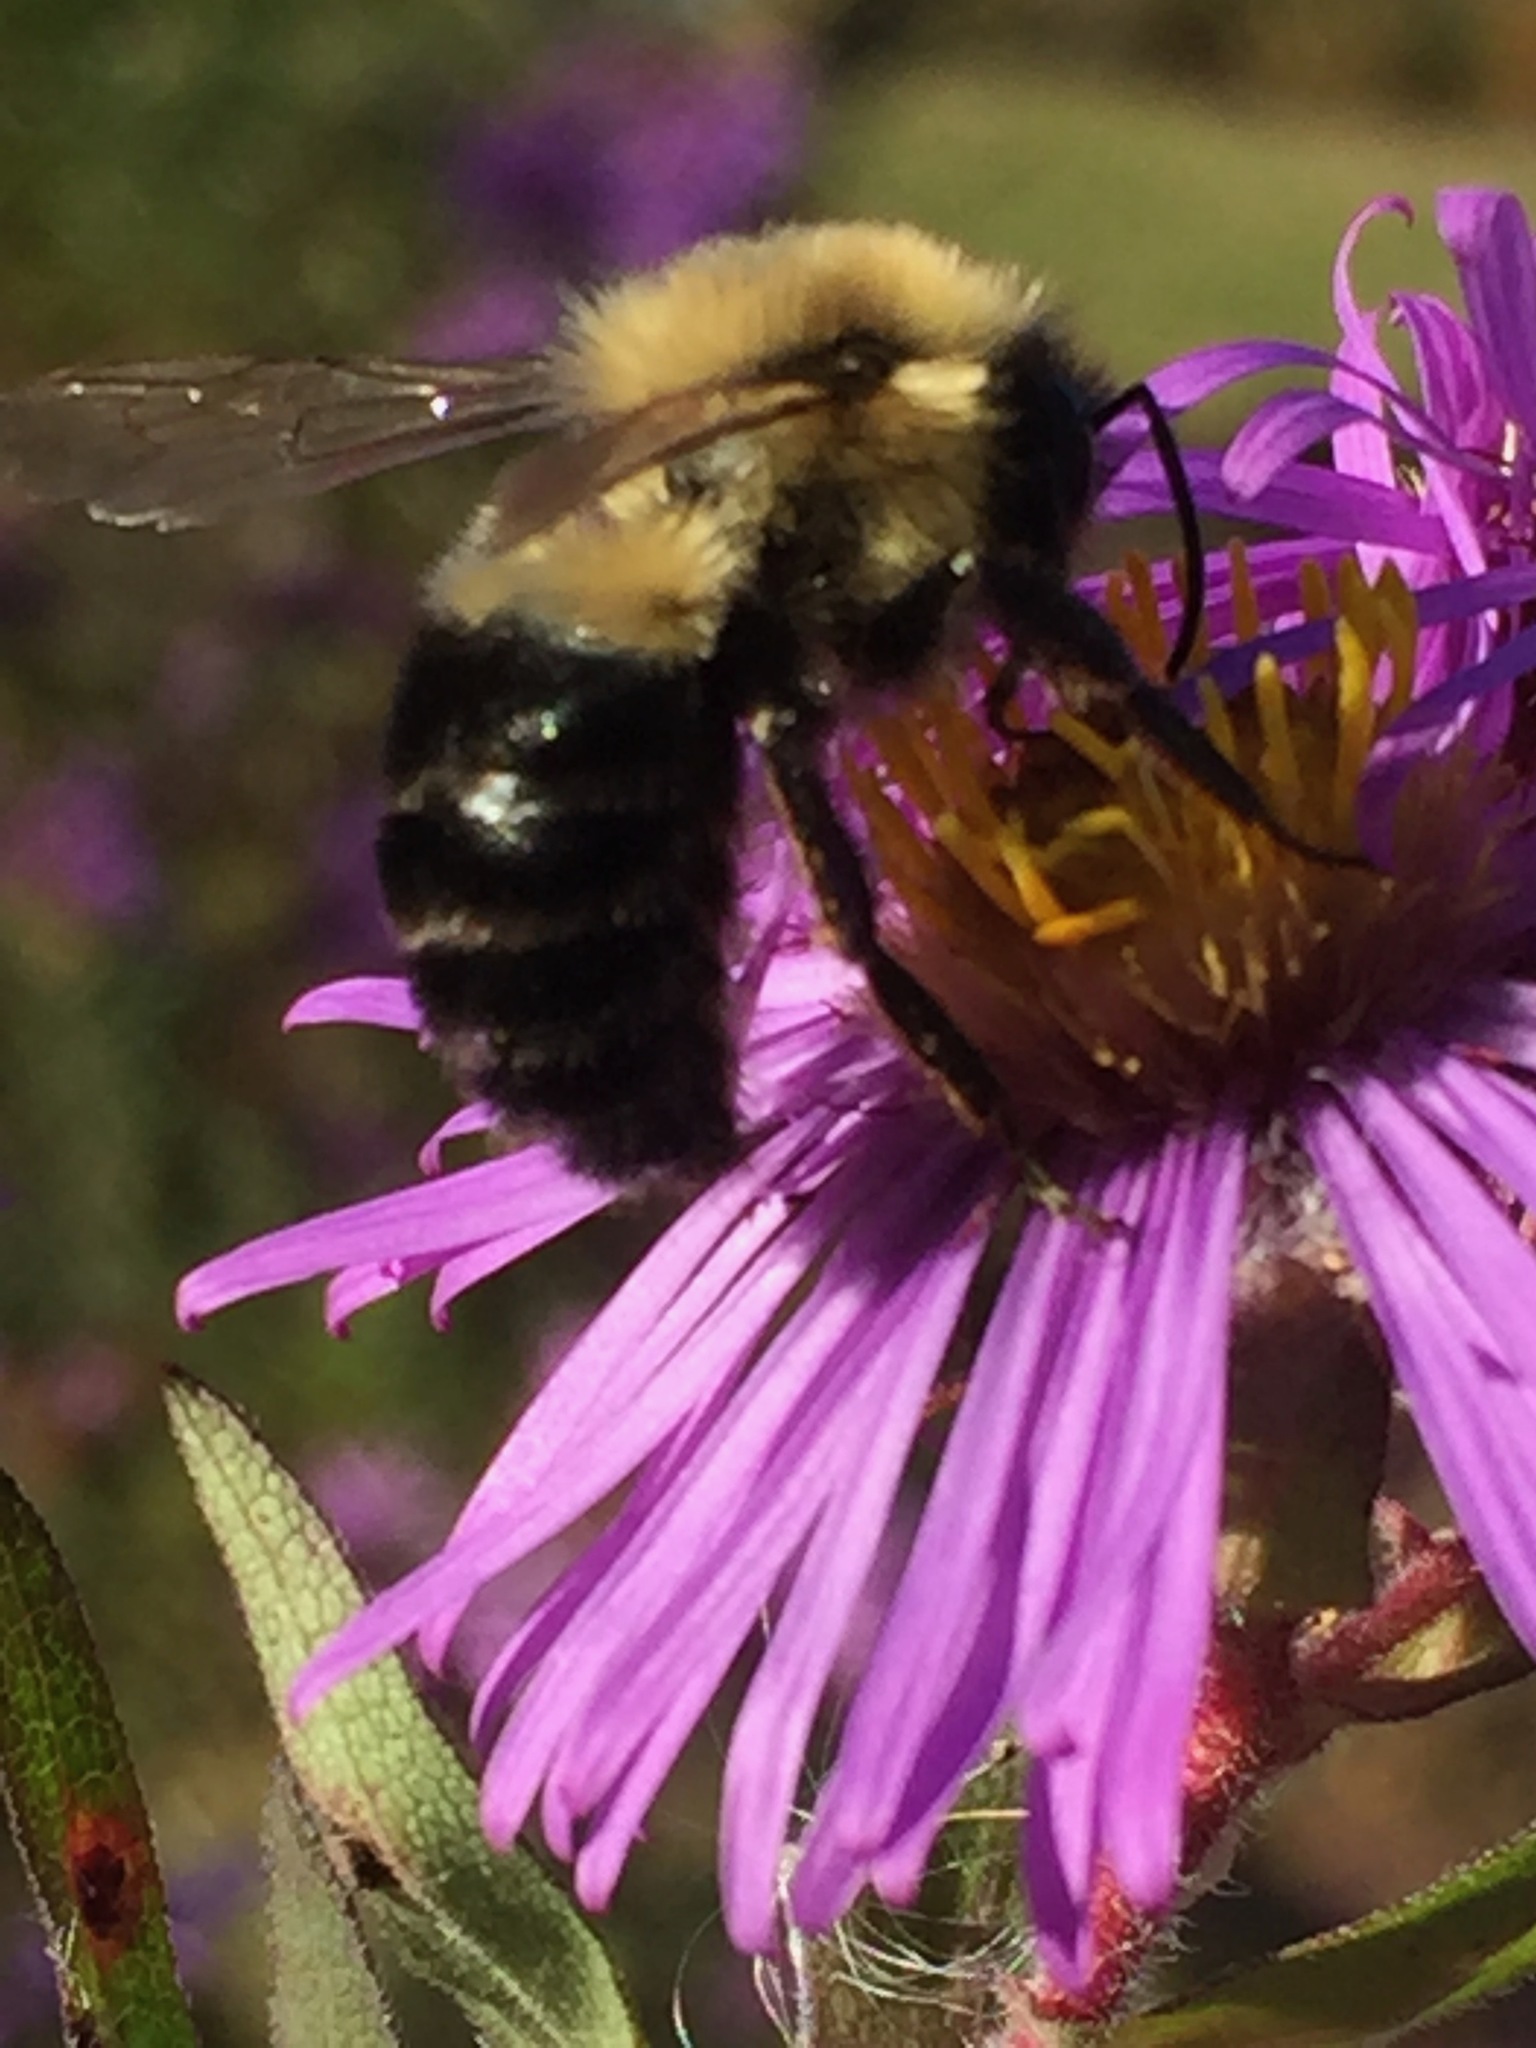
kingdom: Animalia
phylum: Arthropoda
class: Insecta
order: Hymenoptera
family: Apidae
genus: Bombus
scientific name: Bombus impatiens
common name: Common eastern bumble bee
